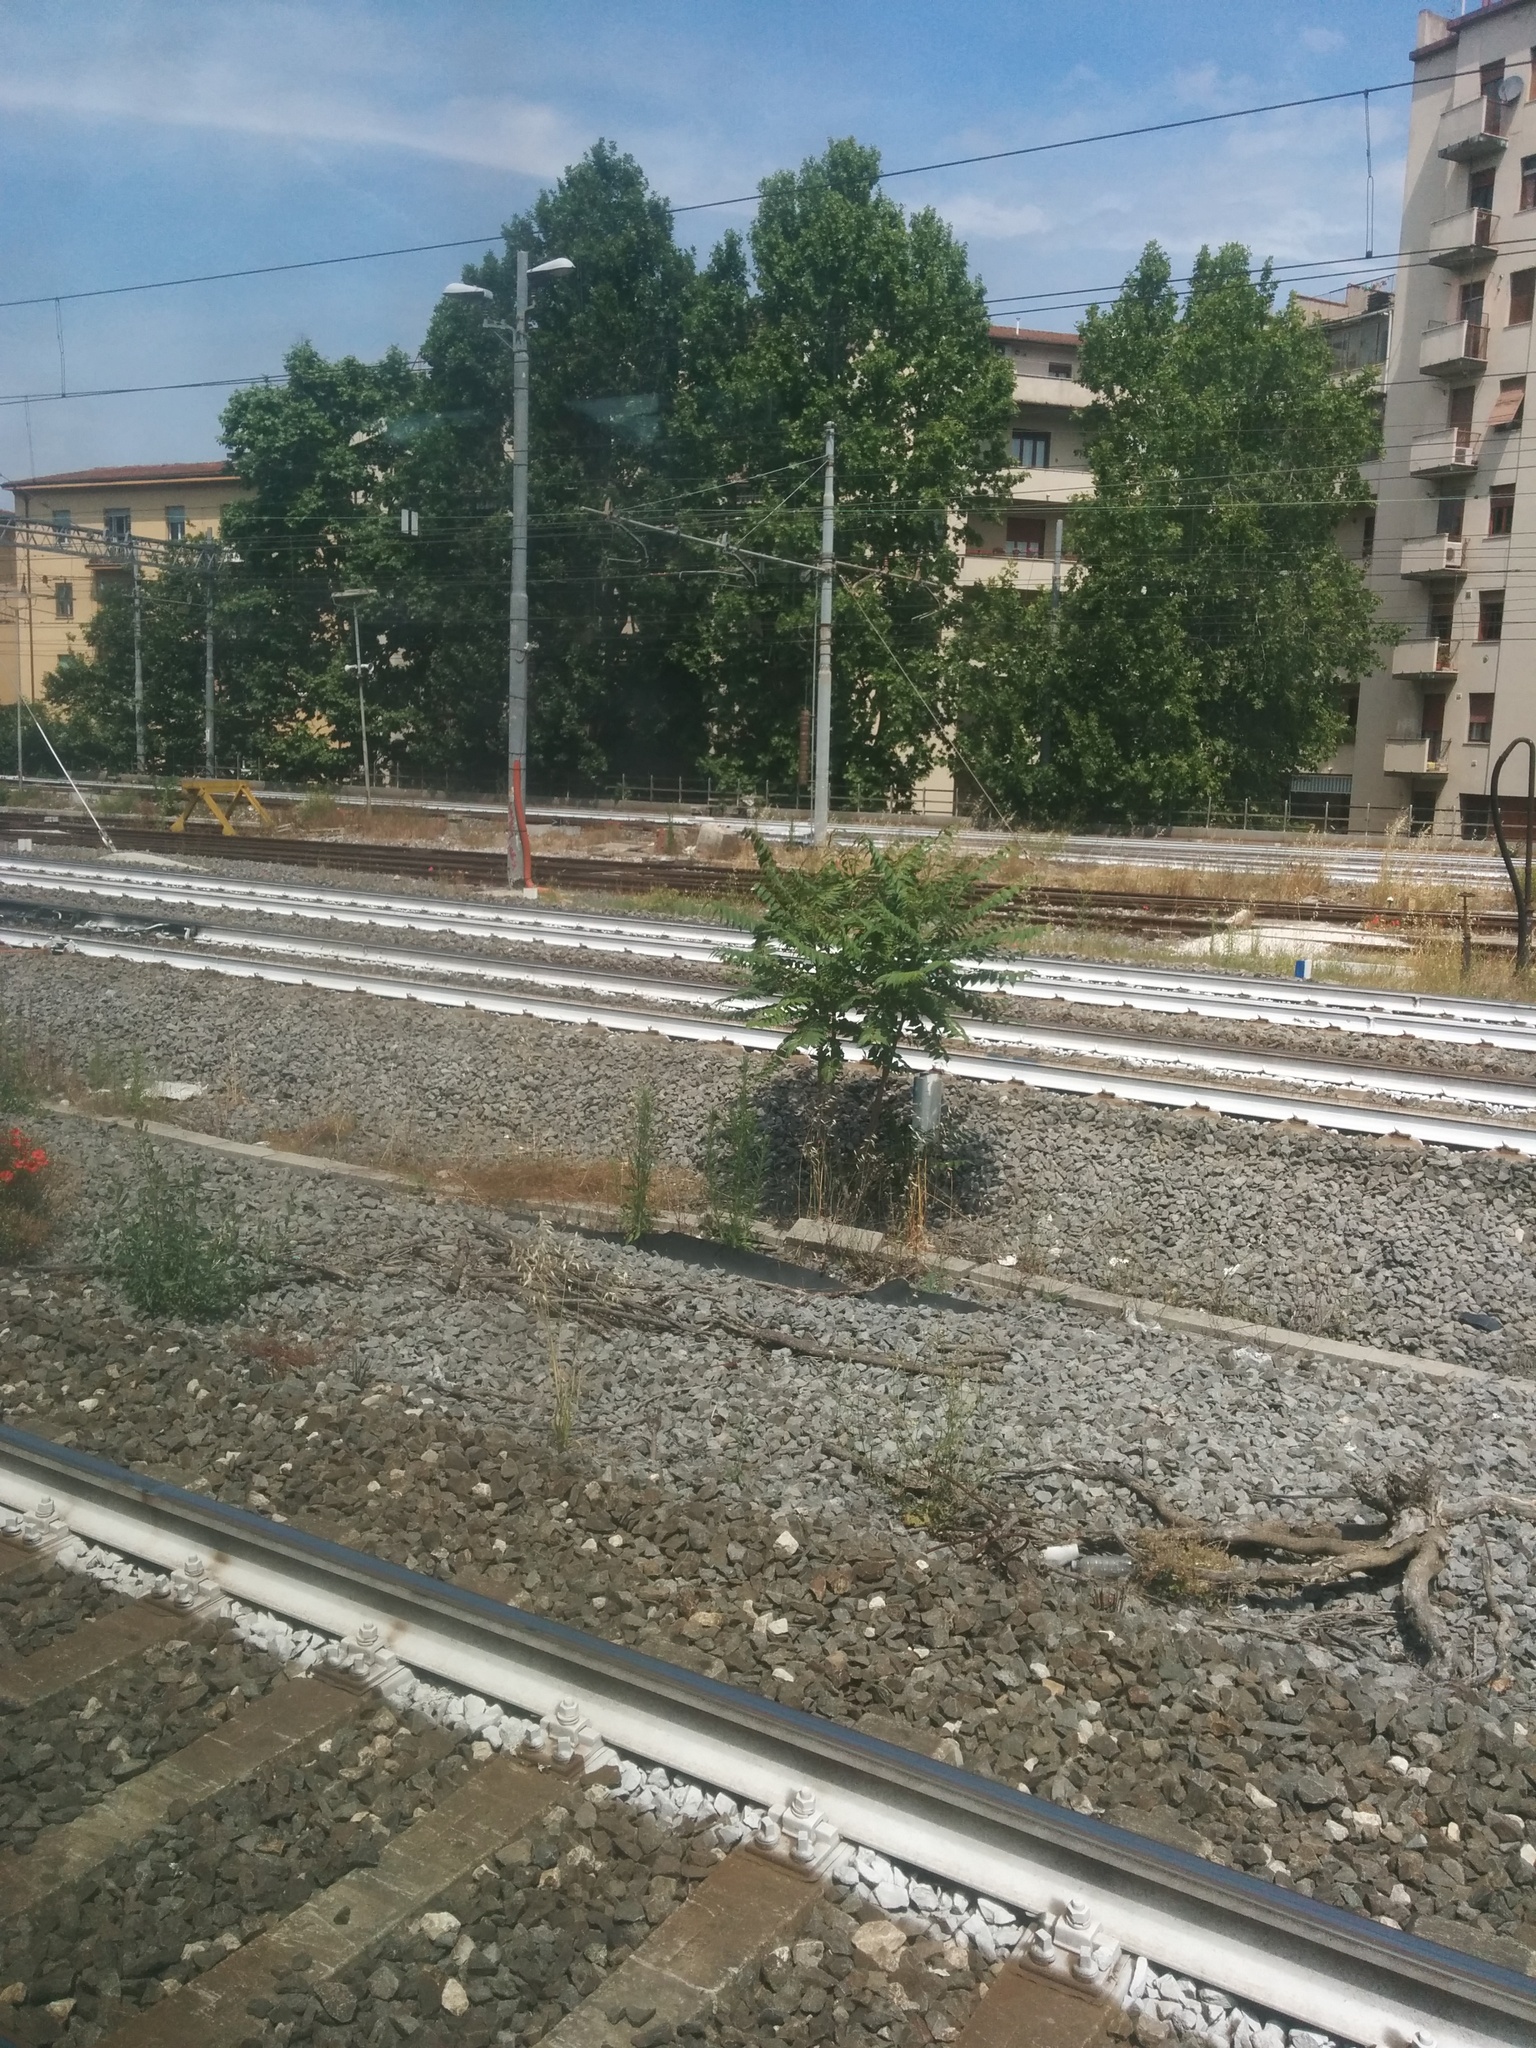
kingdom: Plantae
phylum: Tracheophyta
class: Magnoliopsida
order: Sapindales
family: Simaroubaceae
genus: Ailanthus
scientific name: Ailanthus altissima
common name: Tree-of-heaven
